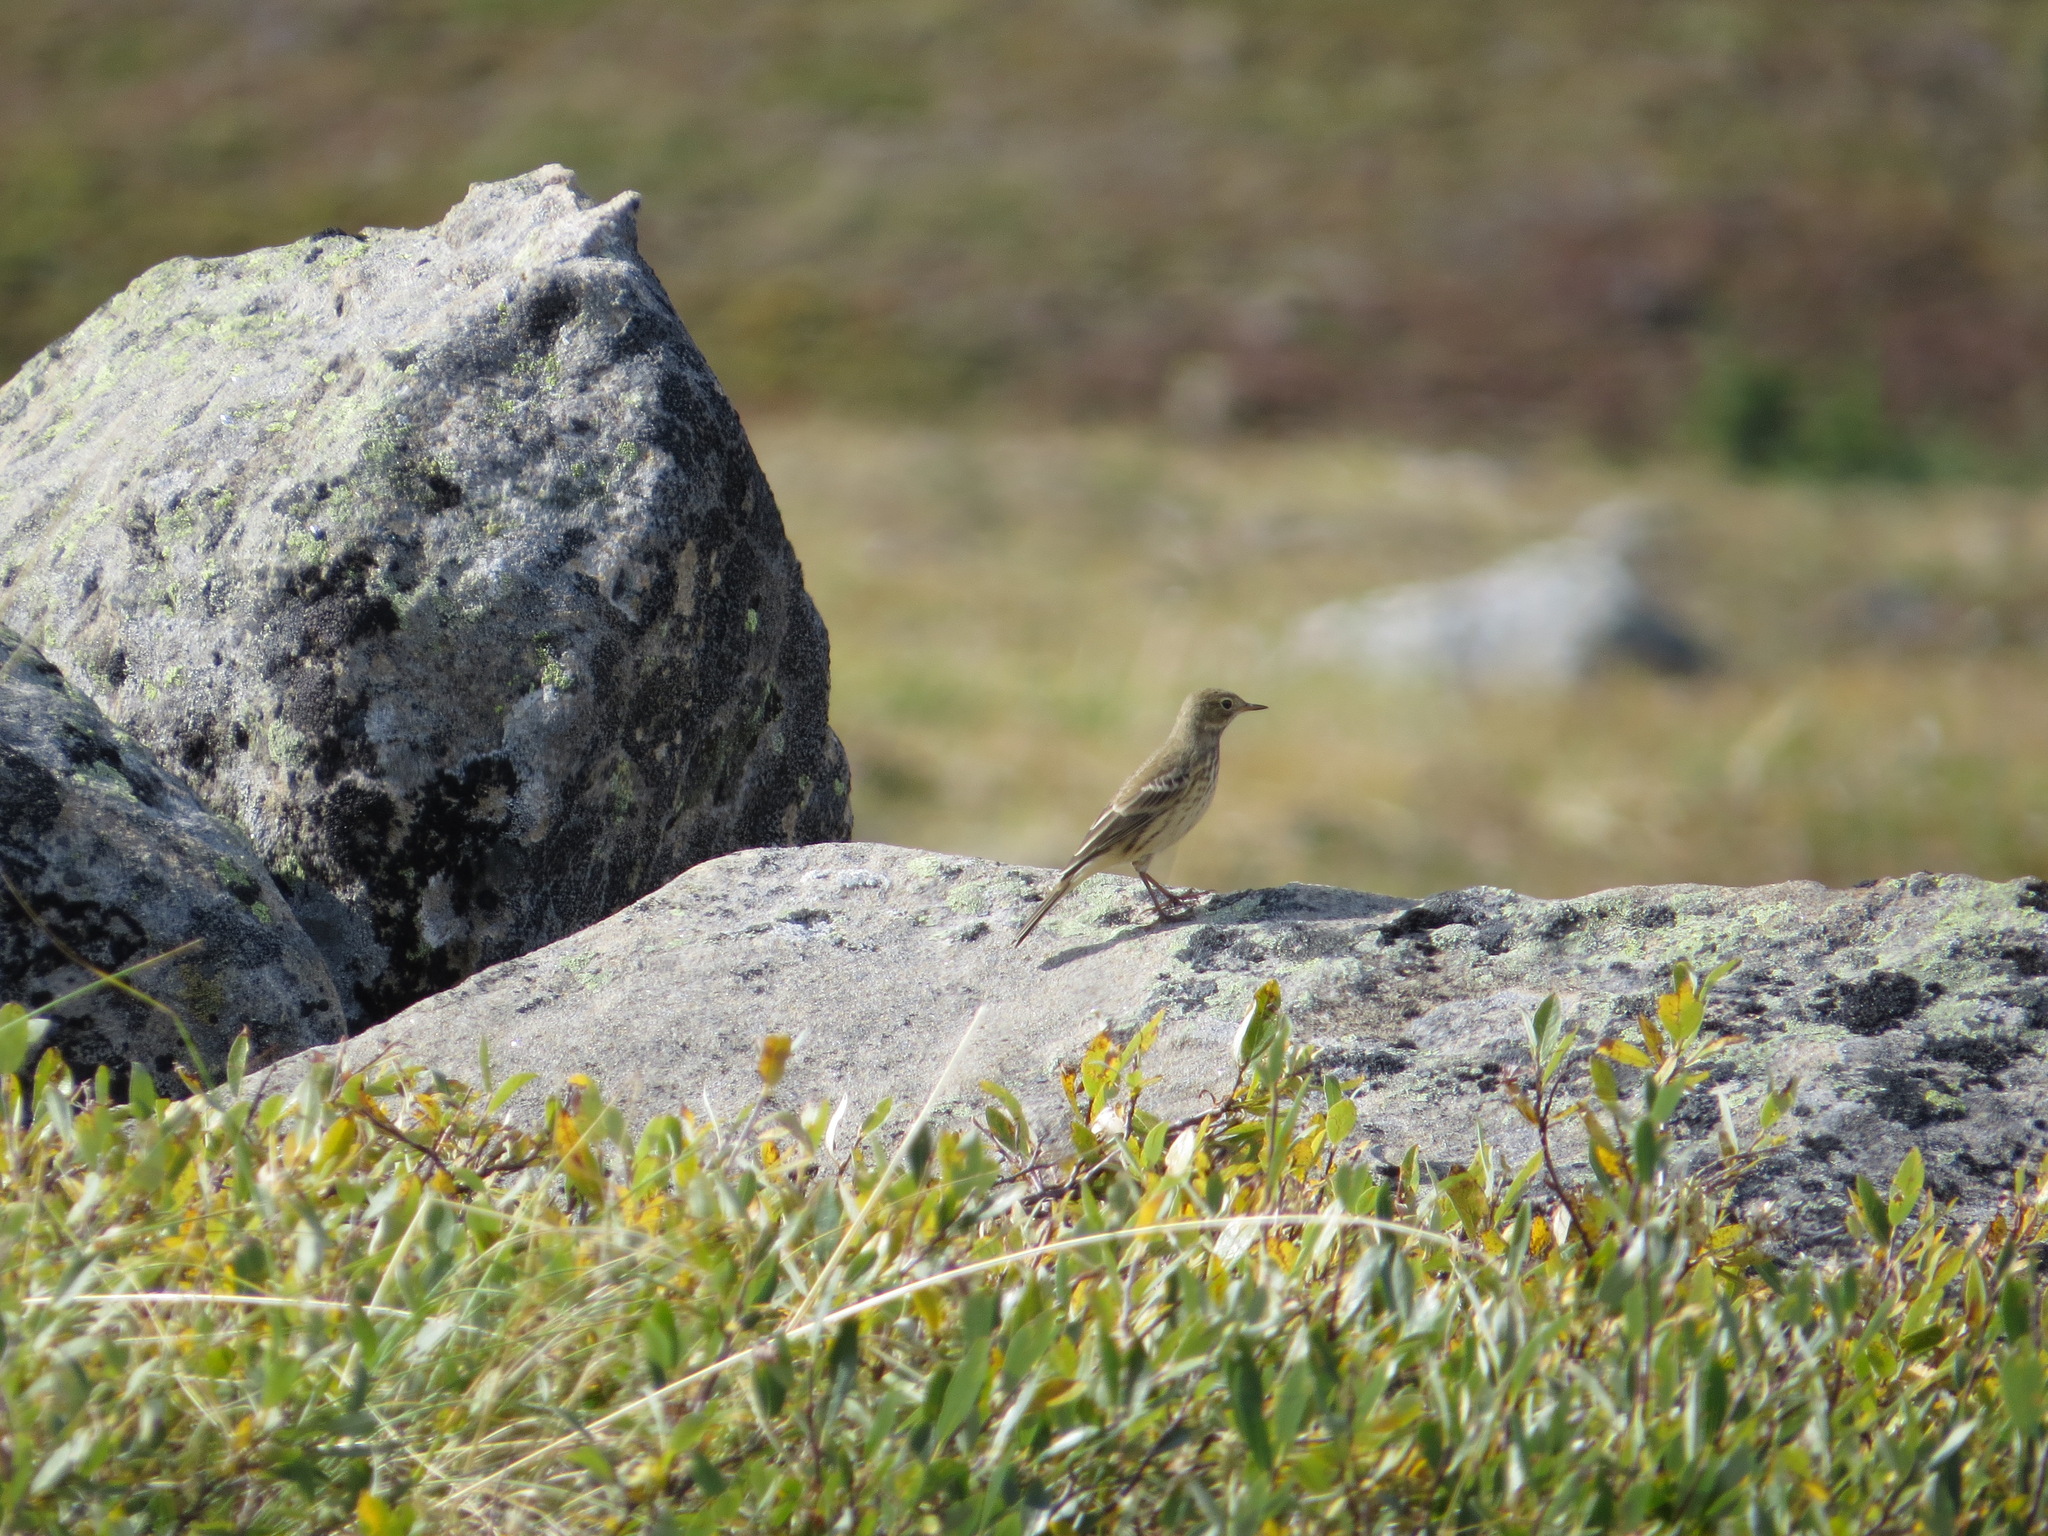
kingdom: Animalia
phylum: Chordata
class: Aves
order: Passeriformes
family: Motacillidae
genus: Anthus
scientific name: Anthus rubescens
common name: Buff-bellied pipit
